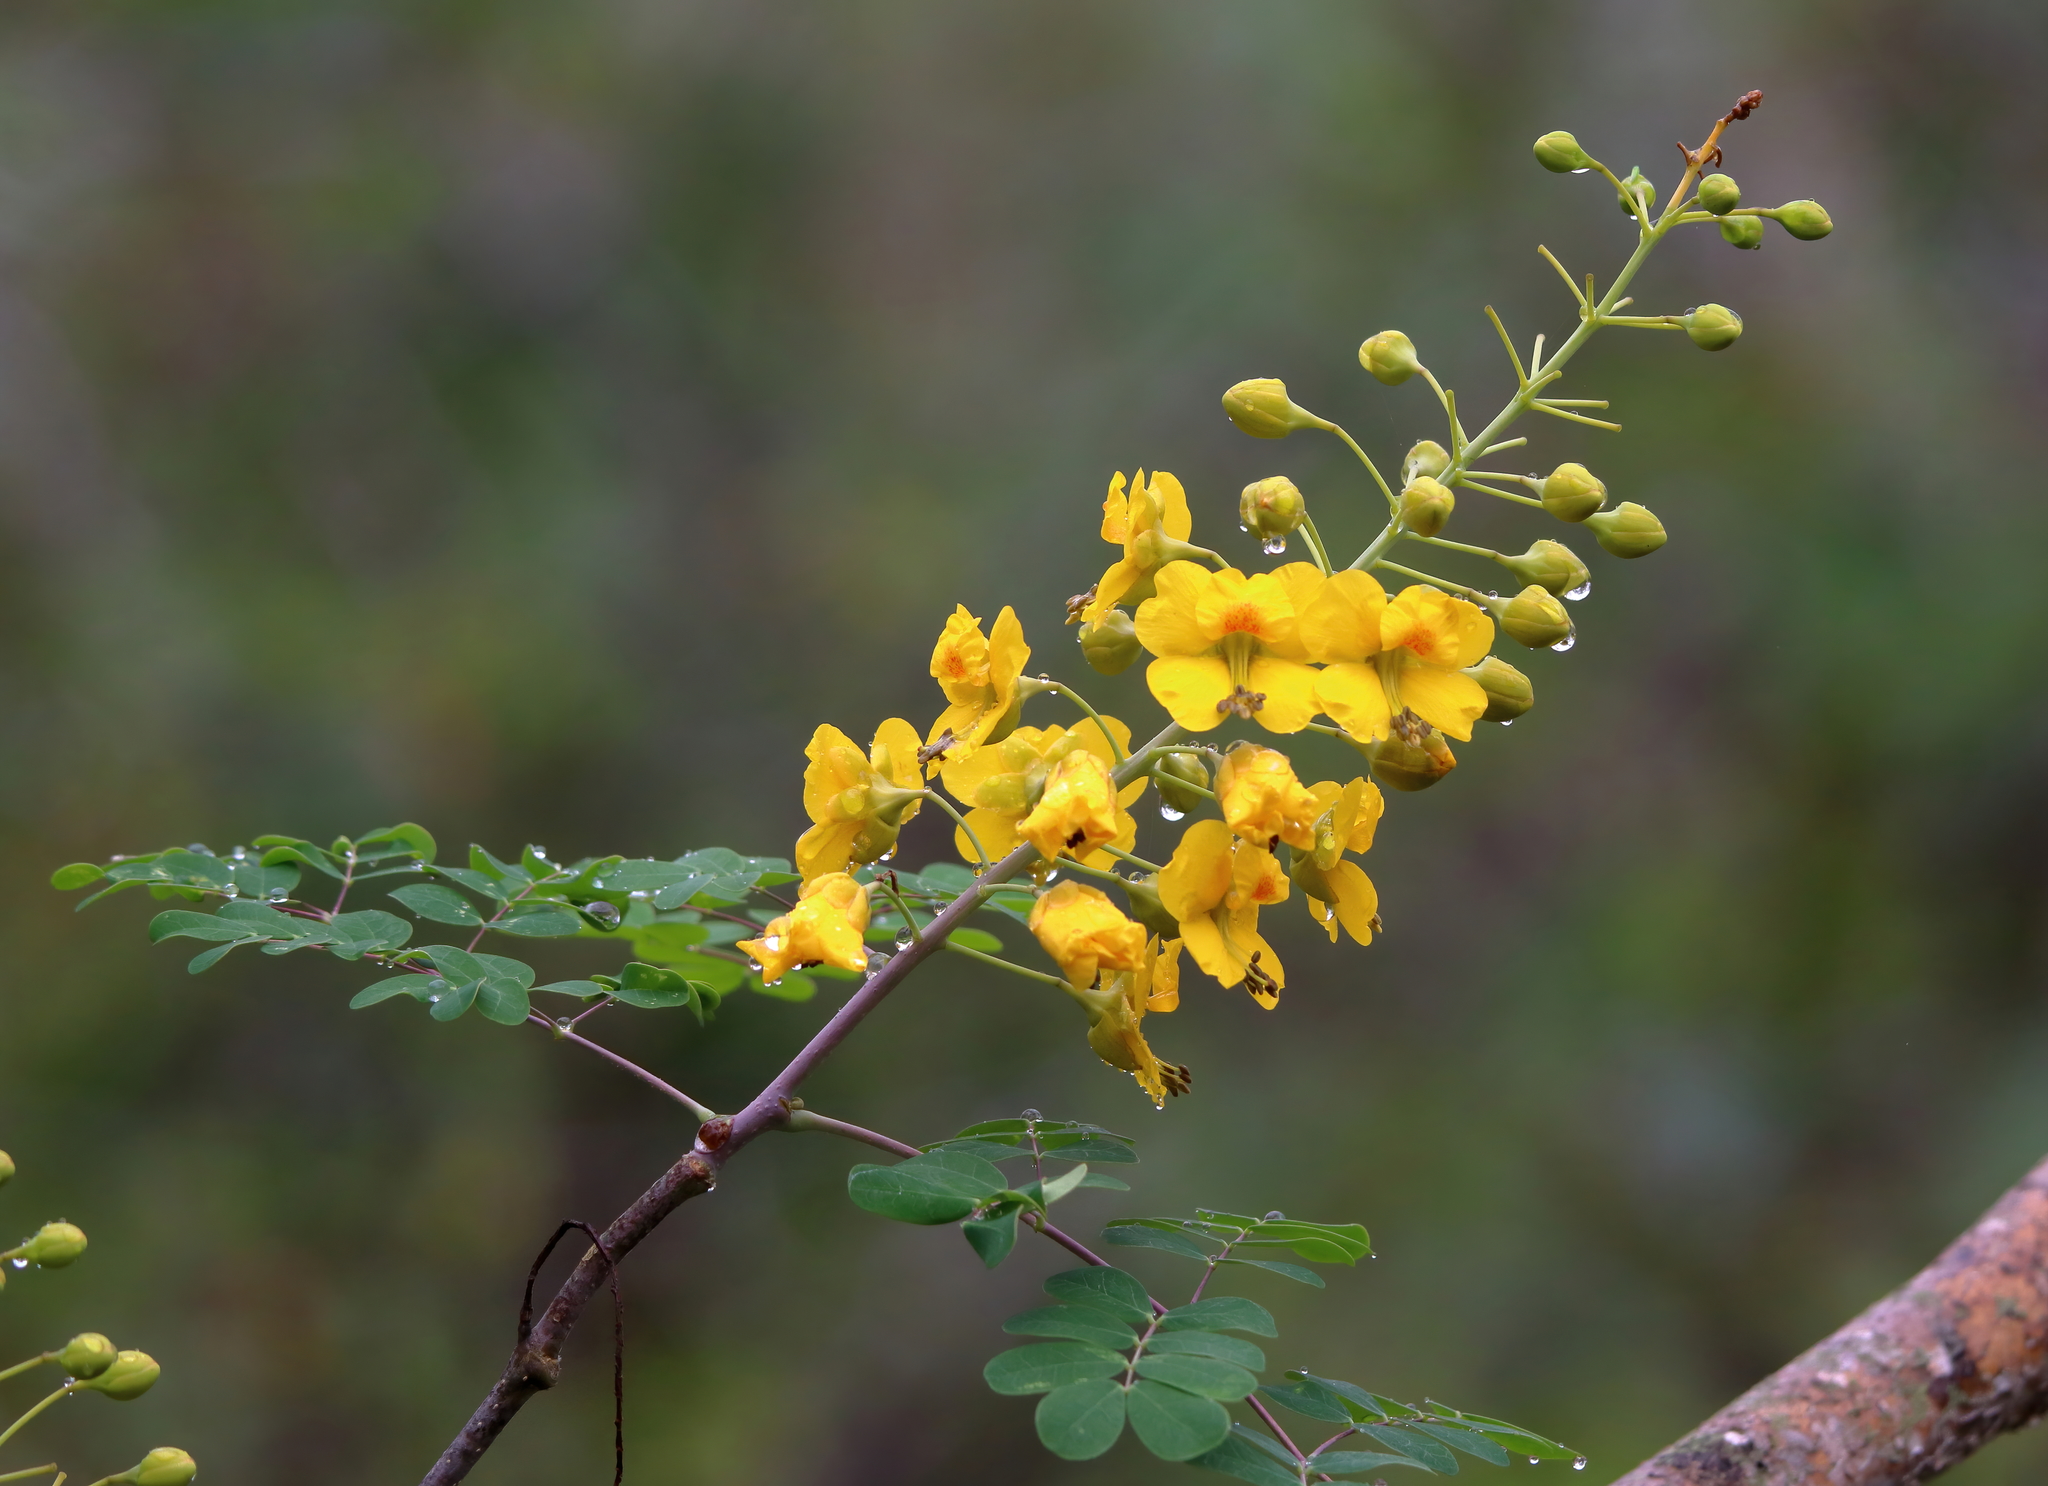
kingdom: Plantae
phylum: Tracheophyta
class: Magnoliopsida
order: Fabales
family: Fabaceae
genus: Erythrostemon
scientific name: Erythrostemon mexicanus
